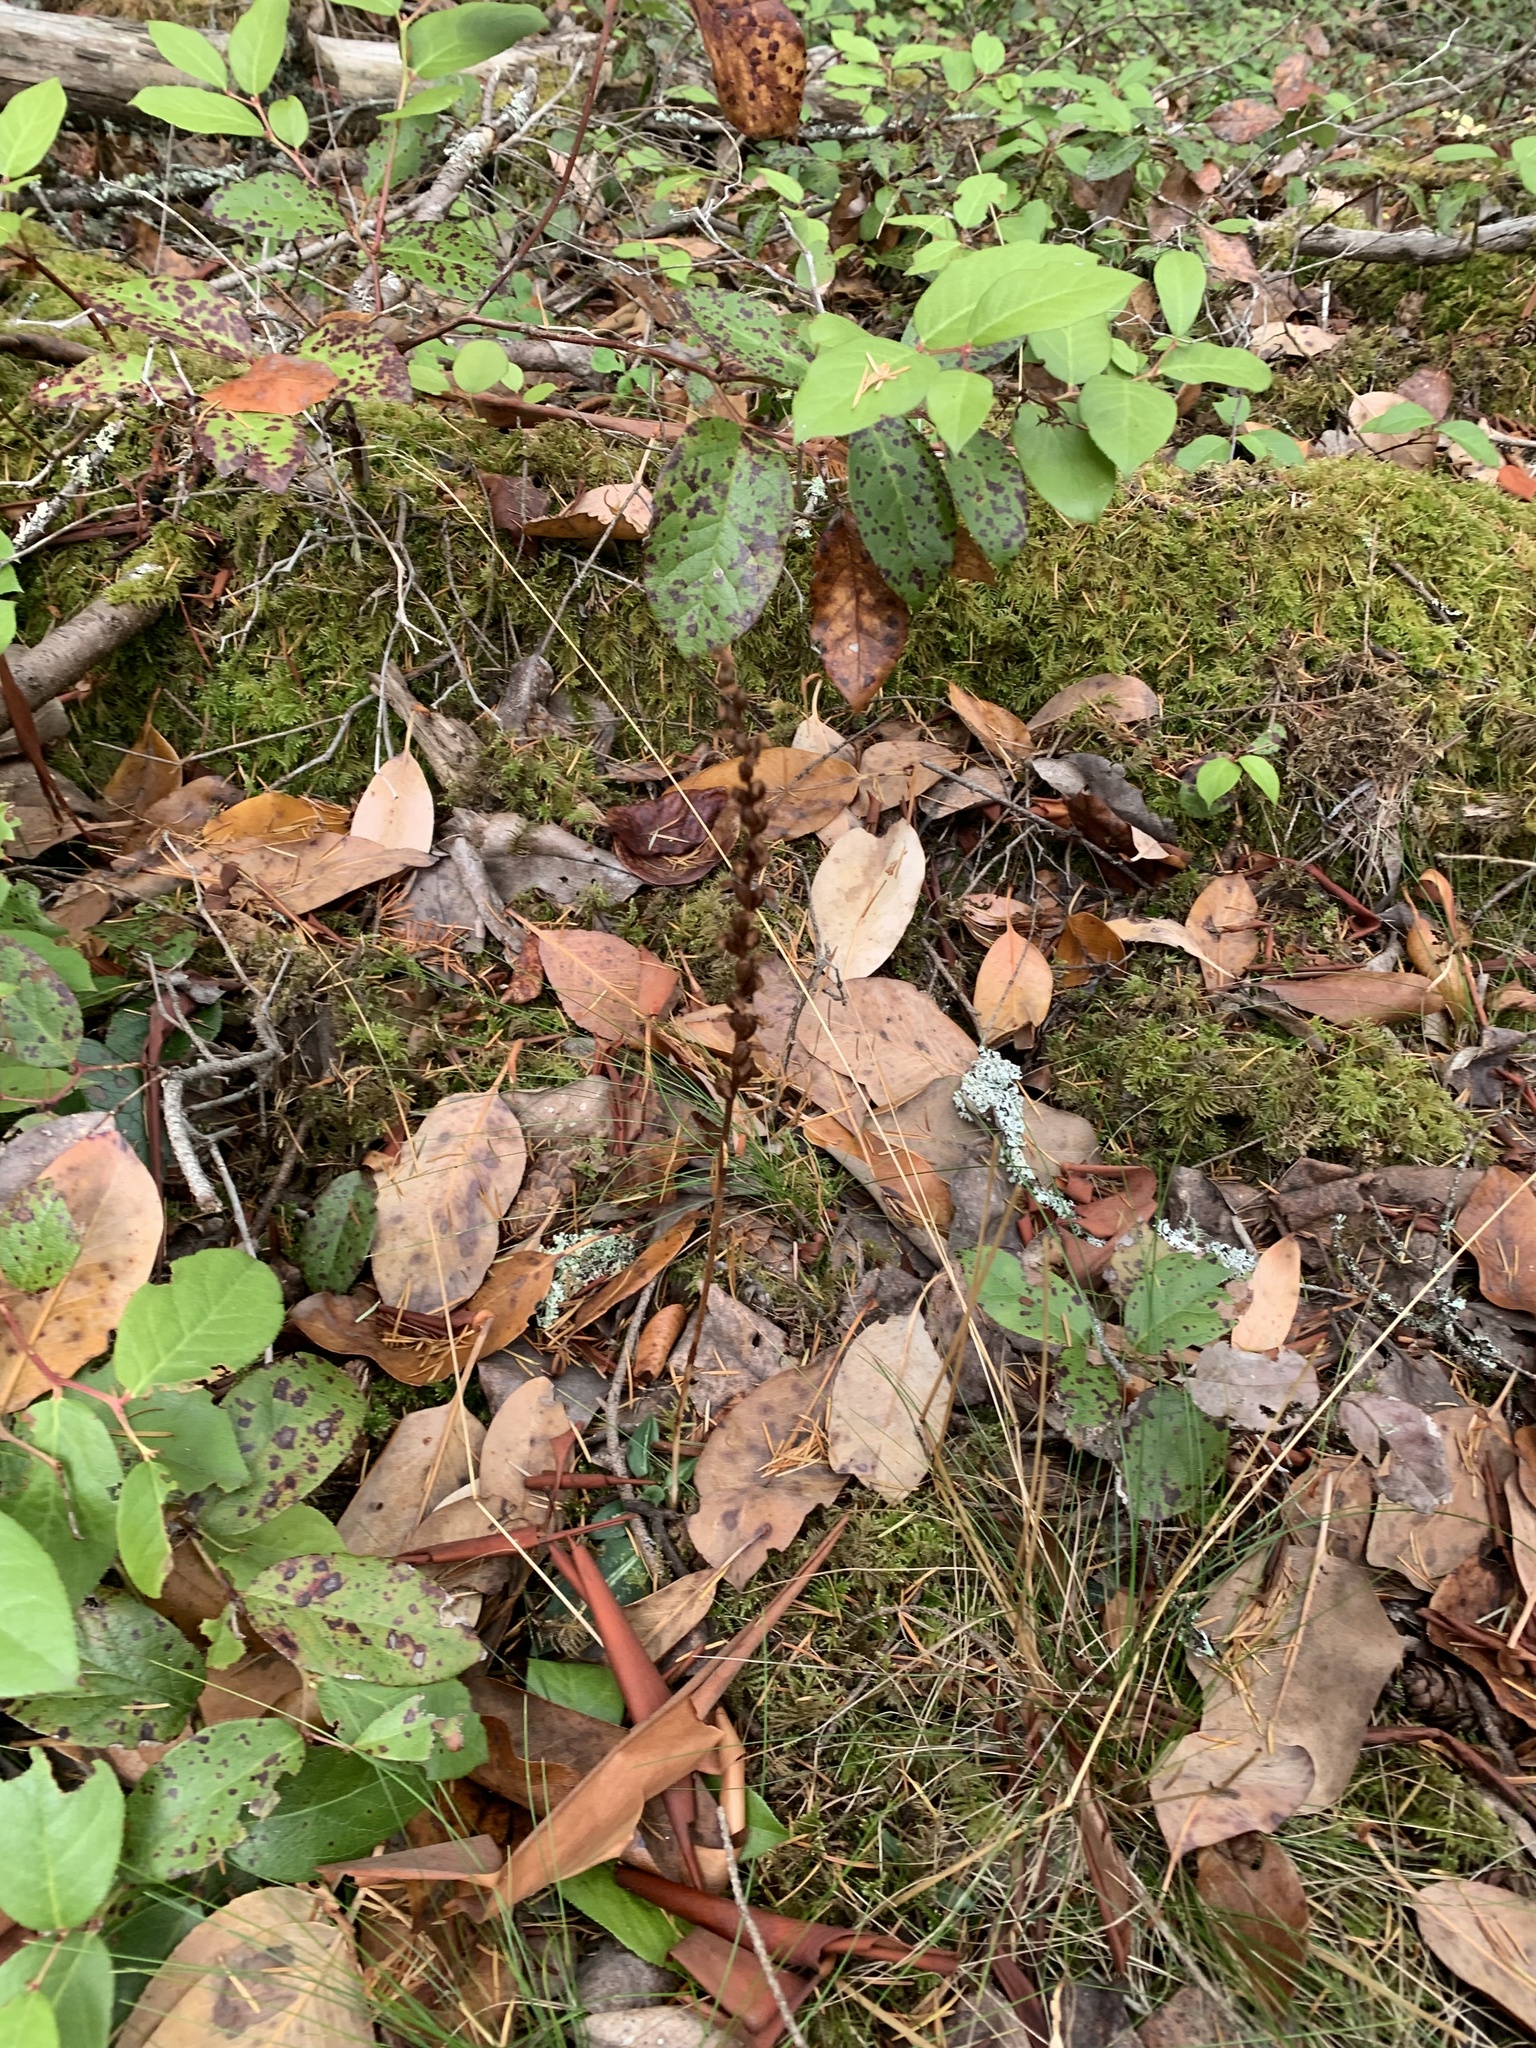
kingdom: Plantae
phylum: Tracheophyta
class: Liliopsida
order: Asparagales
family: Orchidaceae
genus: Corallorhiza
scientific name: Corallorhiza maculata
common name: Spotted coralroot
